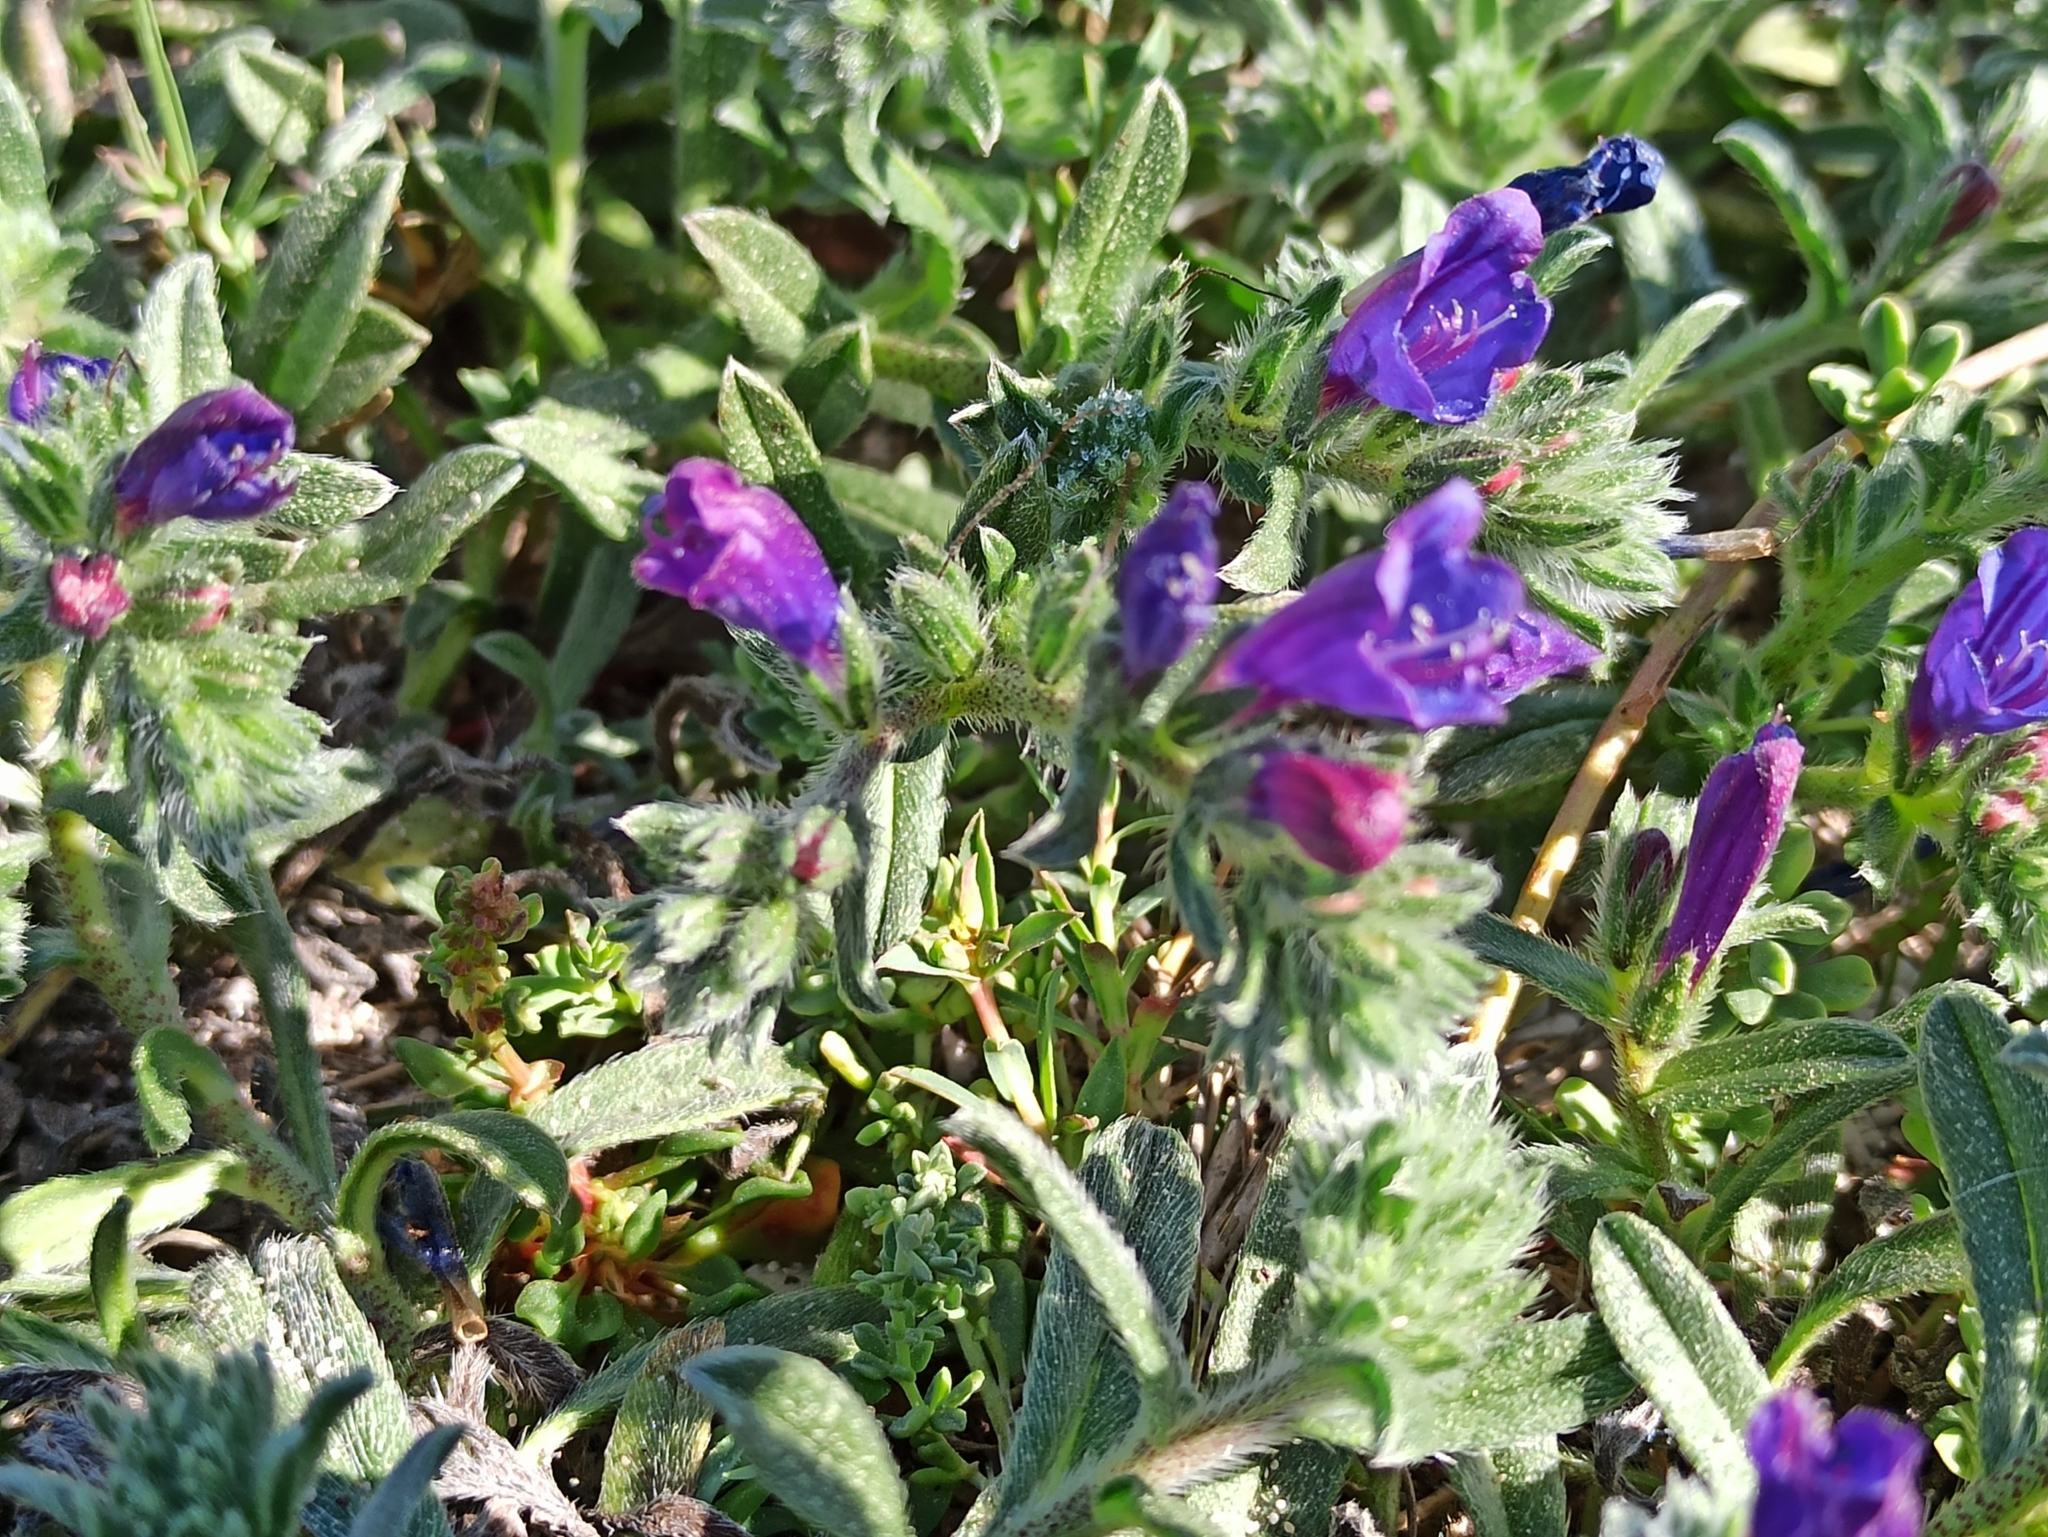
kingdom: Plantae
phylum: Tracheophyta
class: Magnoliopsida
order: Boraginales
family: Boraginaceae
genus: Echium
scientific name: Echium sabulicola
